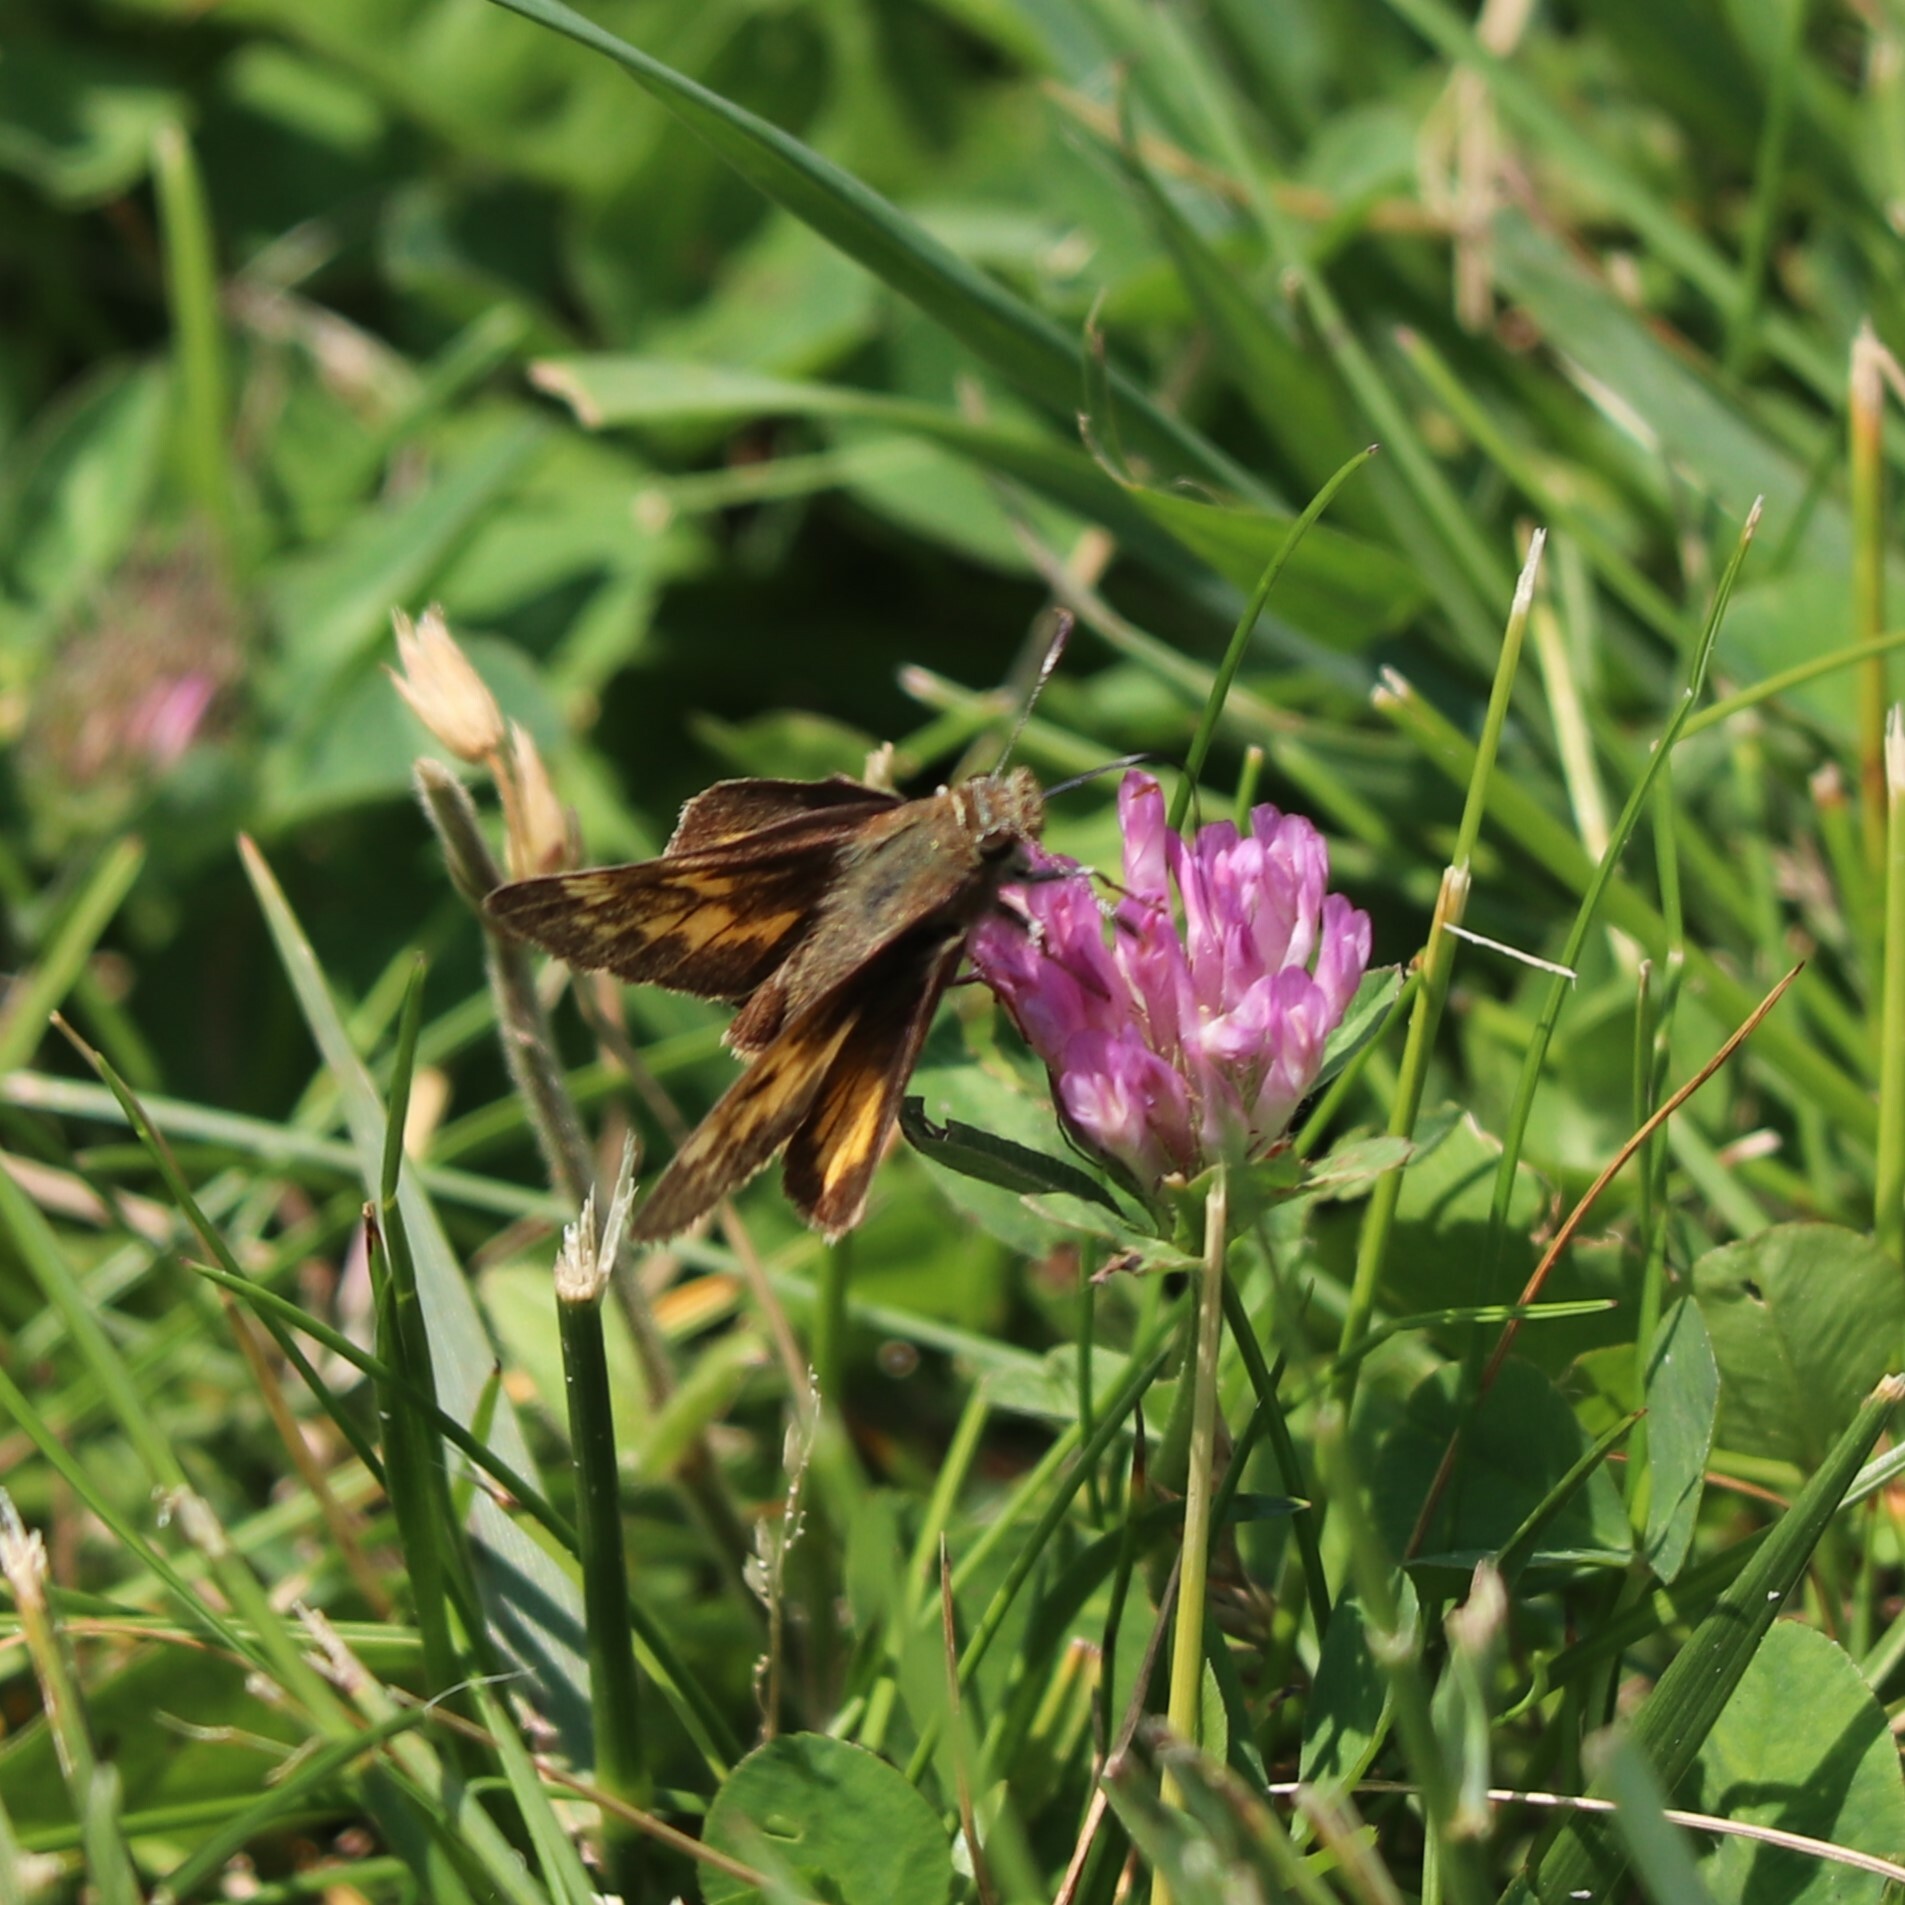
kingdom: Animalia
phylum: Arthropoda
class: Insecta
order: Lepidoptera
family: Hesperiidae
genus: Polites
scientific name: Polites coras
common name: Peck's skipper
